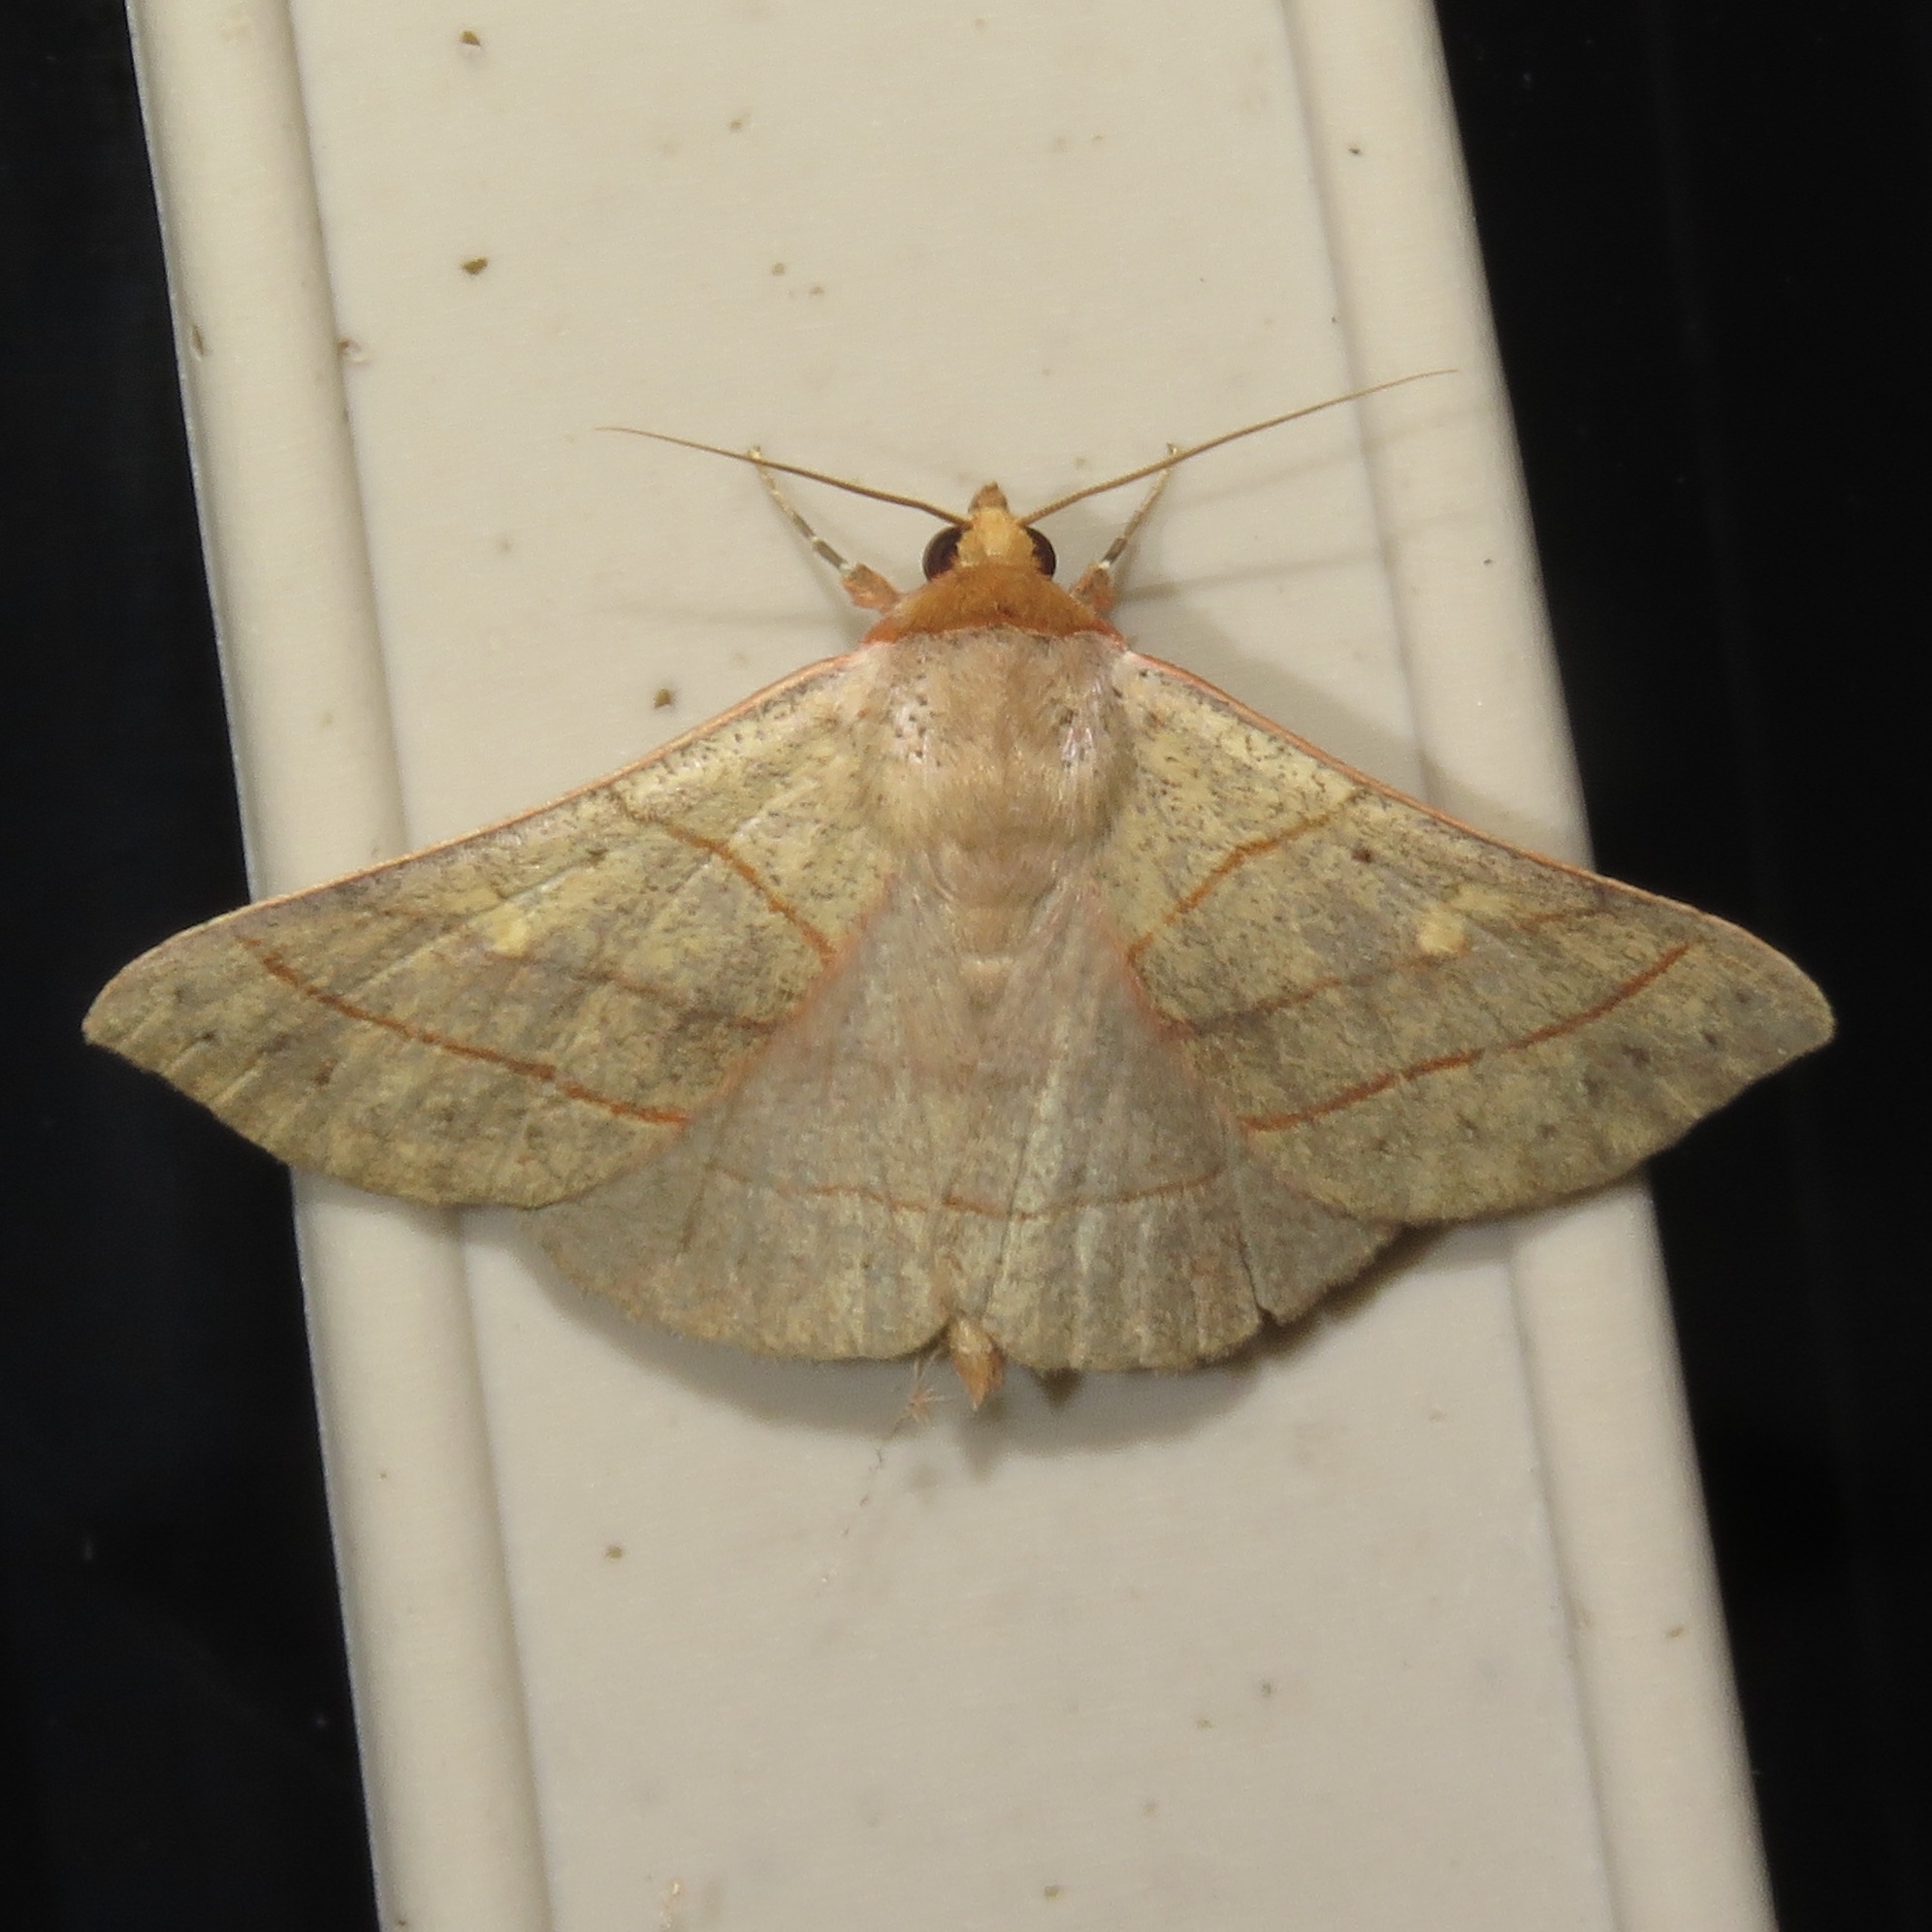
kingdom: Animalia
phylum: Arthropoda
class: Insecta
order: Lepidoptera
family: Erebidae
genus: Panopoda
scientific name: Panopoda rufimargo
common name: Red-lined panopoda moth
